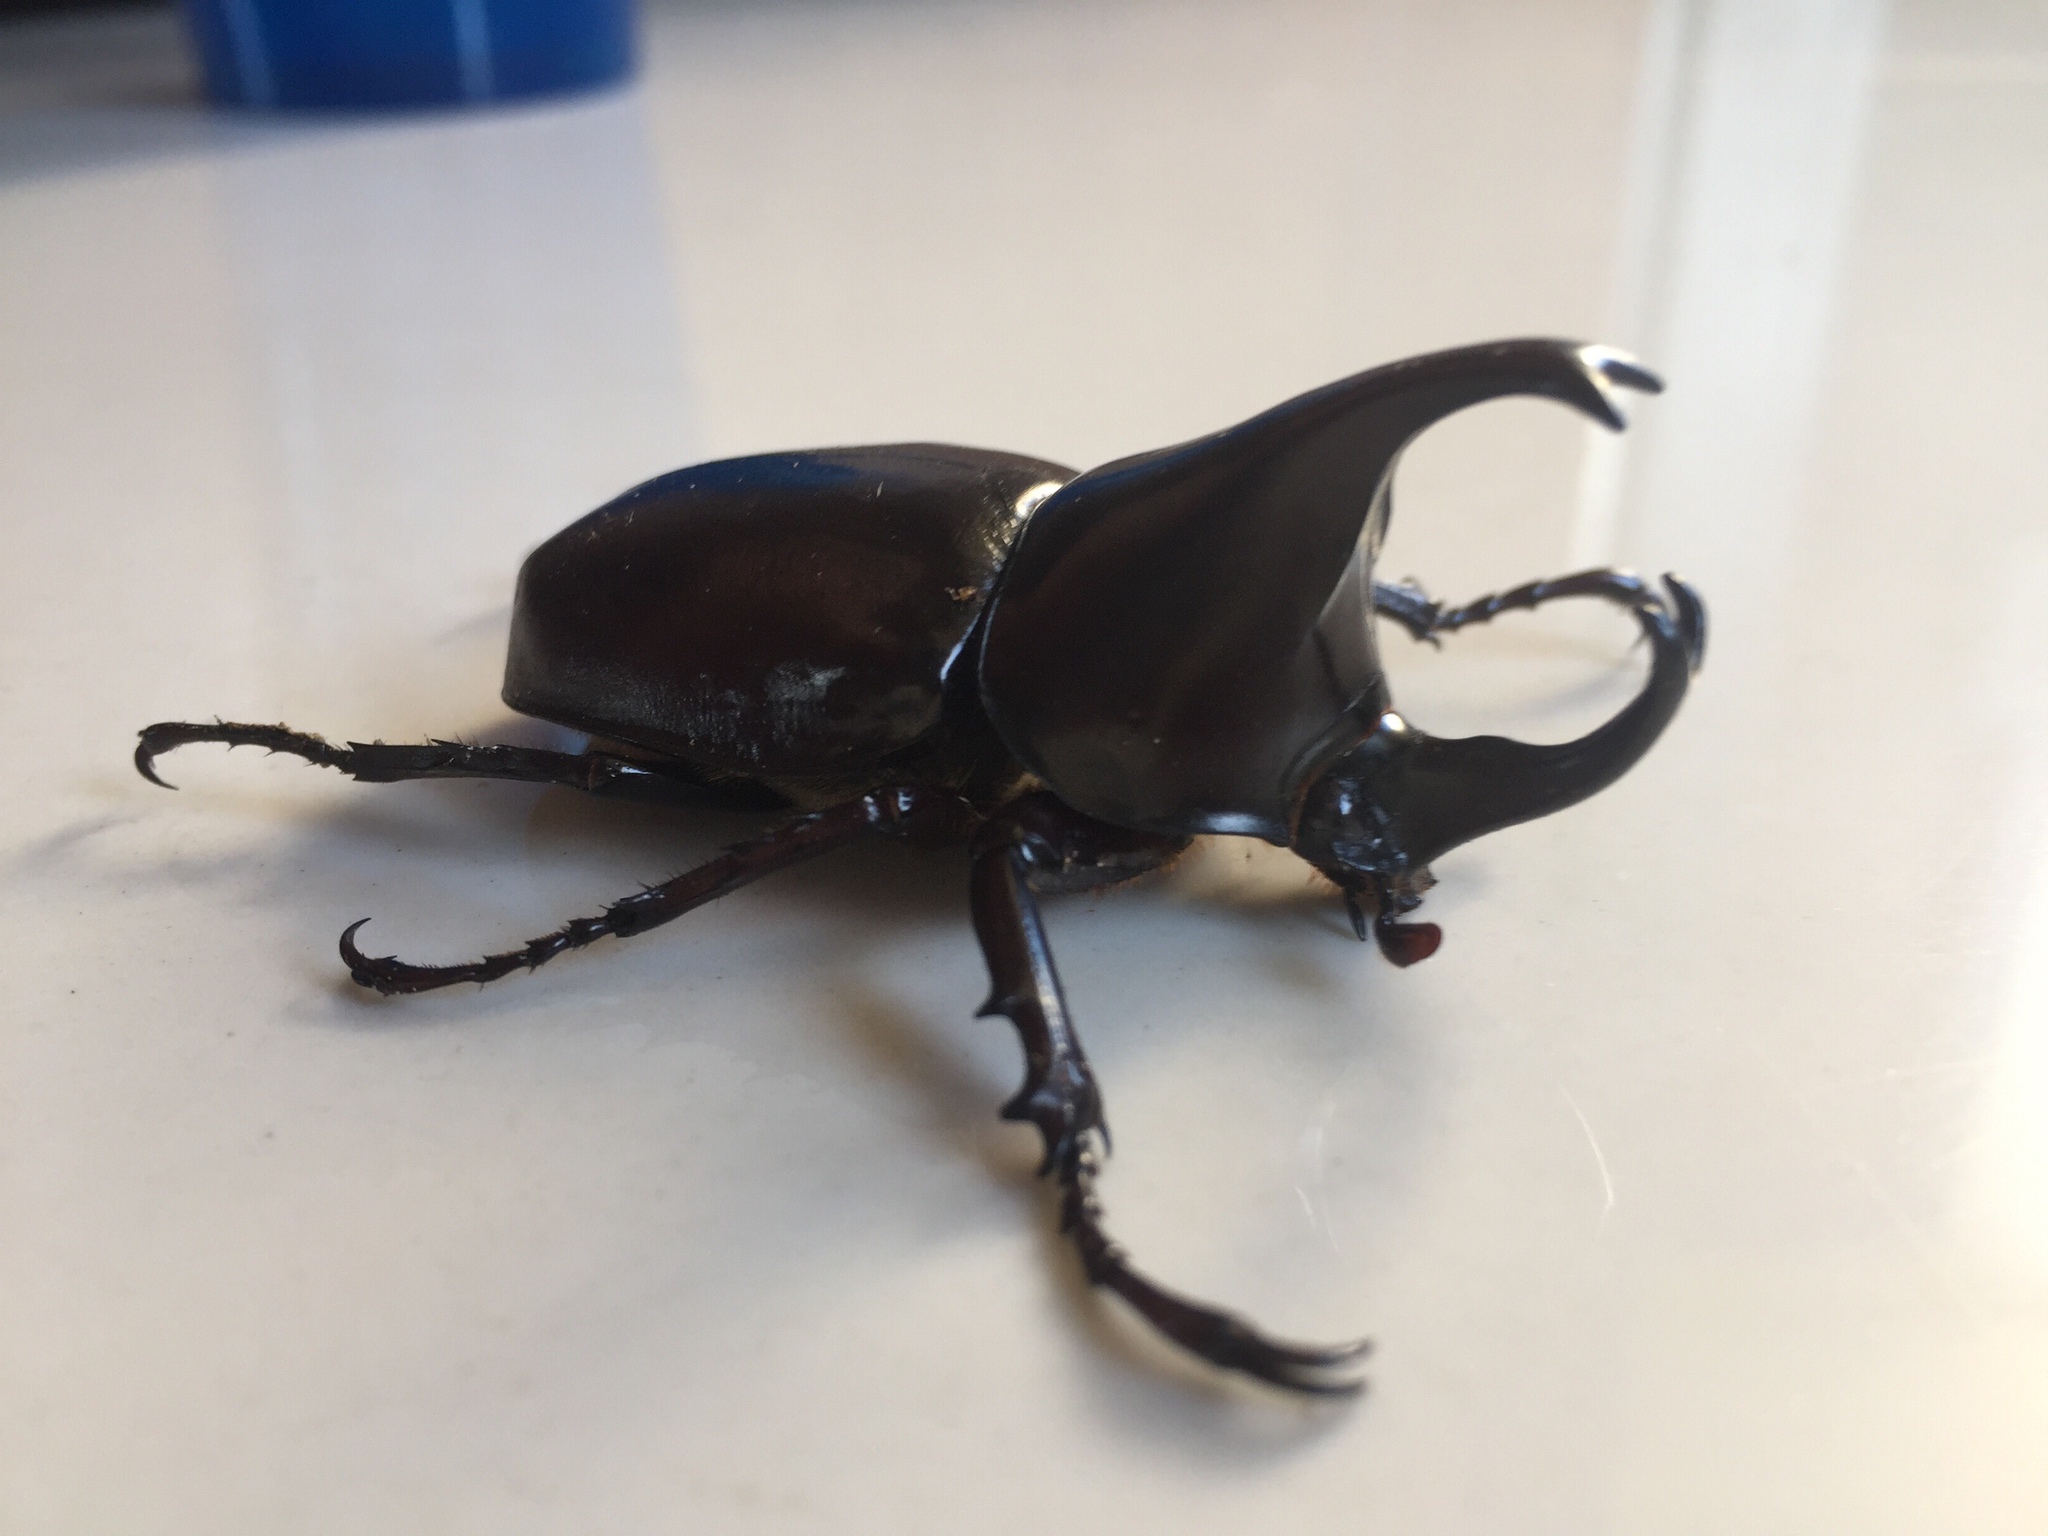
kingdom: Animalia
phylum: Arthropoda
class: Insecta
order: Coleoptera
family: Scarabaeidae
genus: Xylotrupes
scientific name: Xylotrupes socrates
